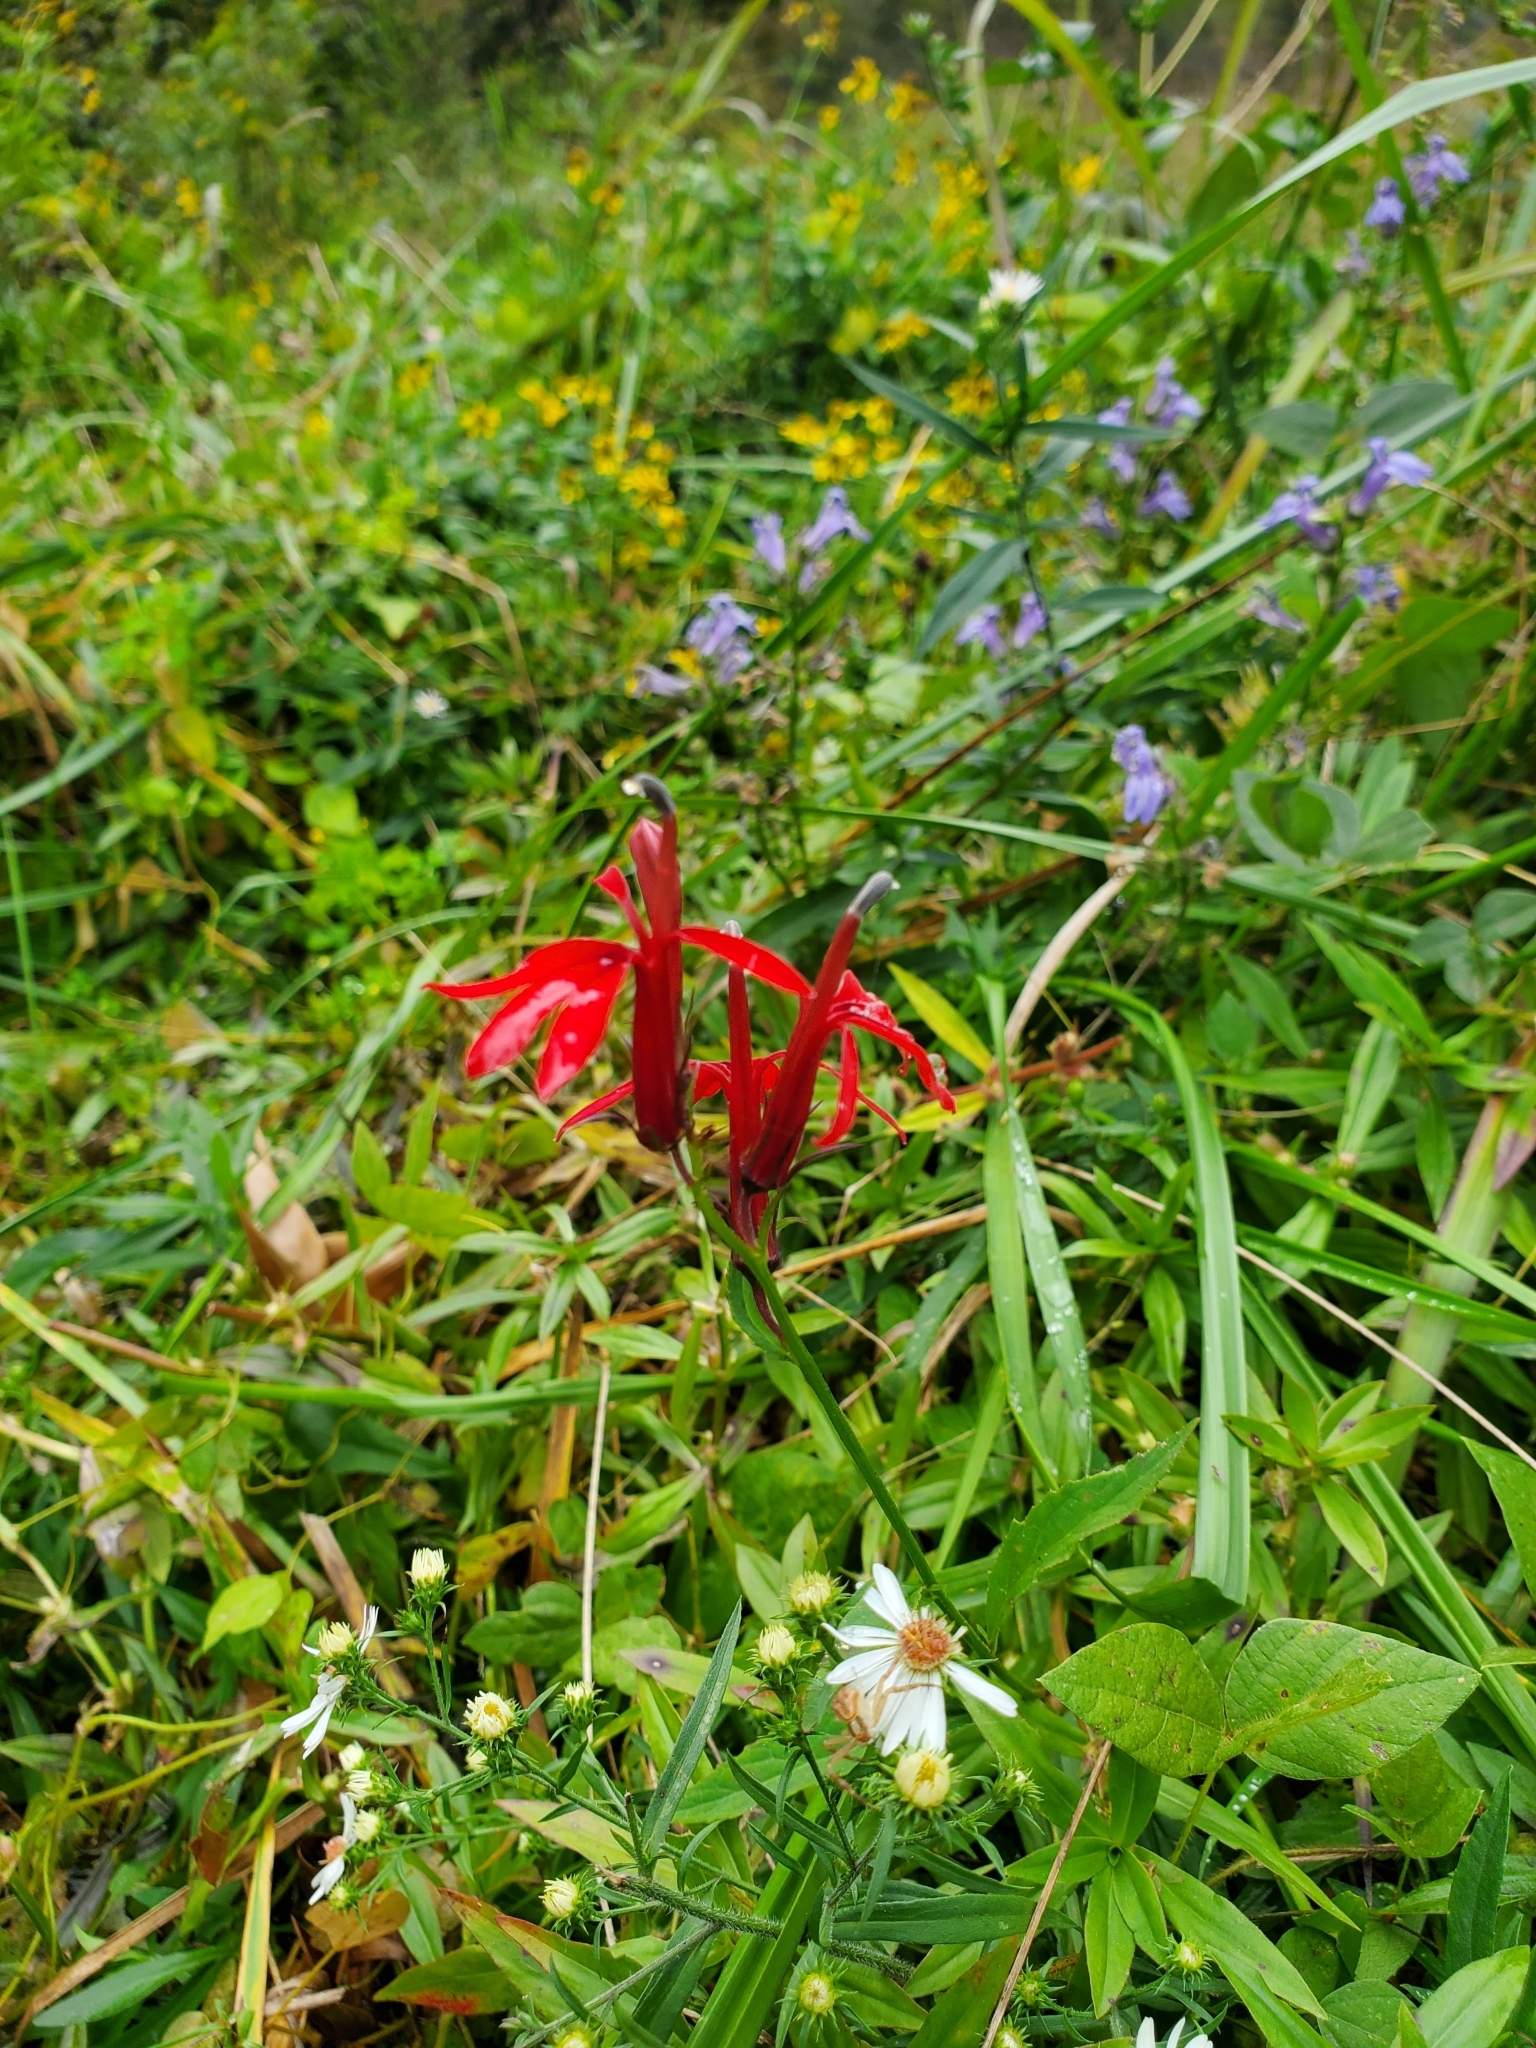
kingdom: Plantae
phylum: Tracheophyta
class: Magnoliopsida
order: Asterales
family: Campanulaceae
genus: Lobelia
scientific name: Lobelia cardinalis
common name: Cardinal flower
